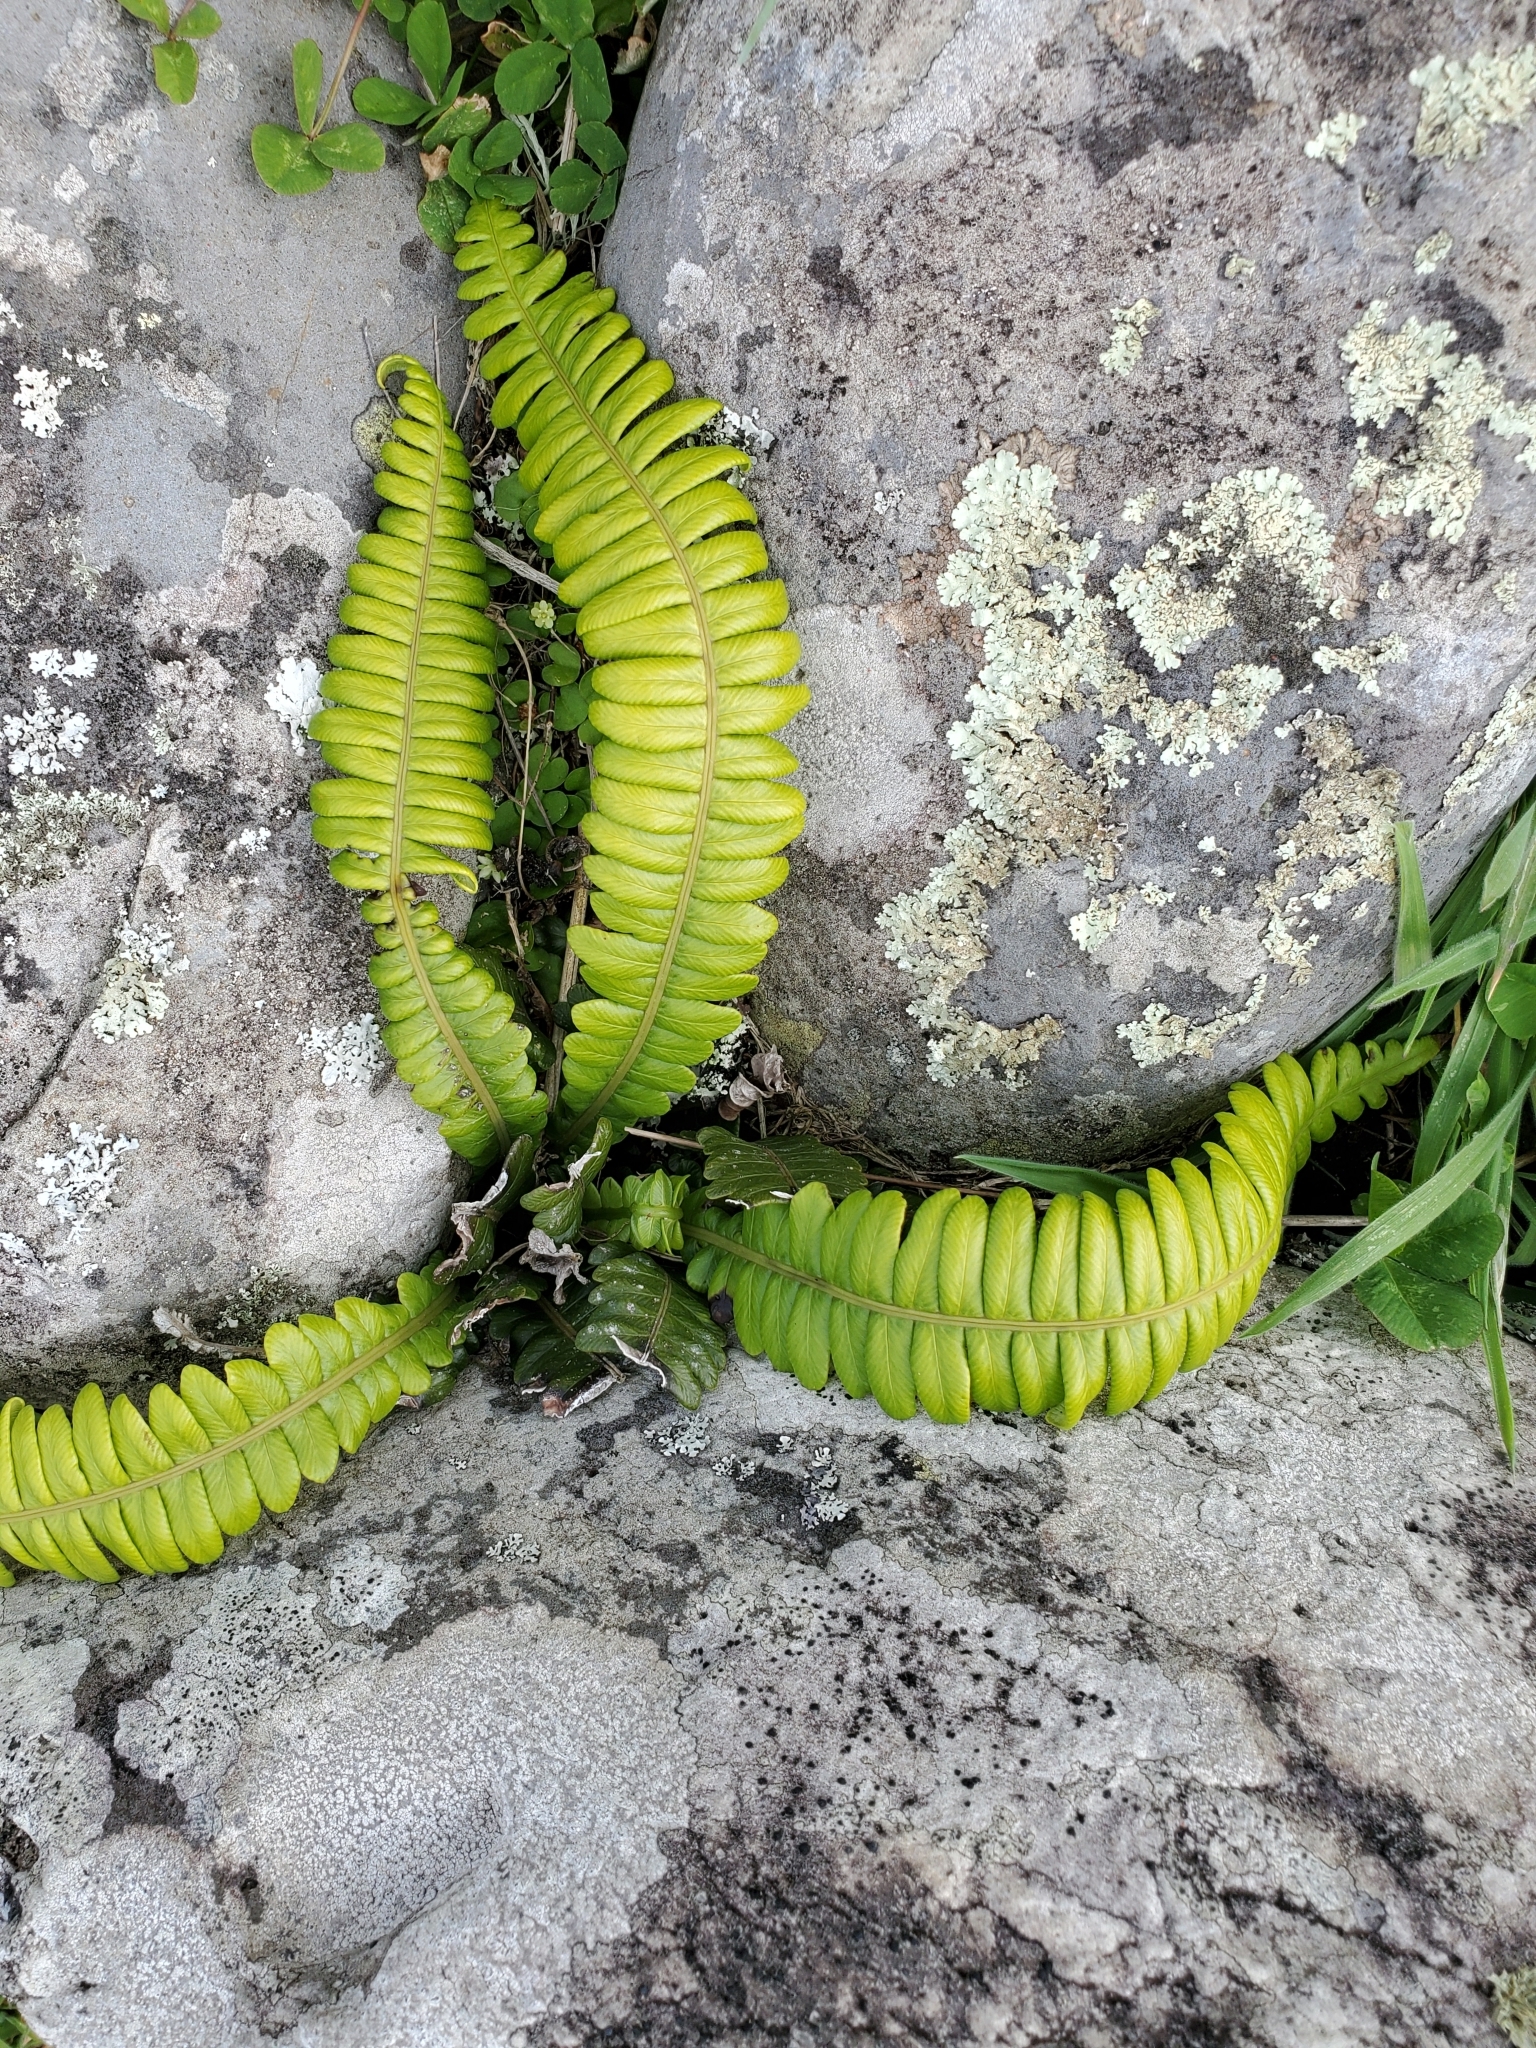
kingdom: Plantae
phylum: Tracheophyta
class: Polypodiopsida
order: Polypodiales
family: Blechnaceae
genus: Austroblechnum
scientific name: Austroblechnum durum
